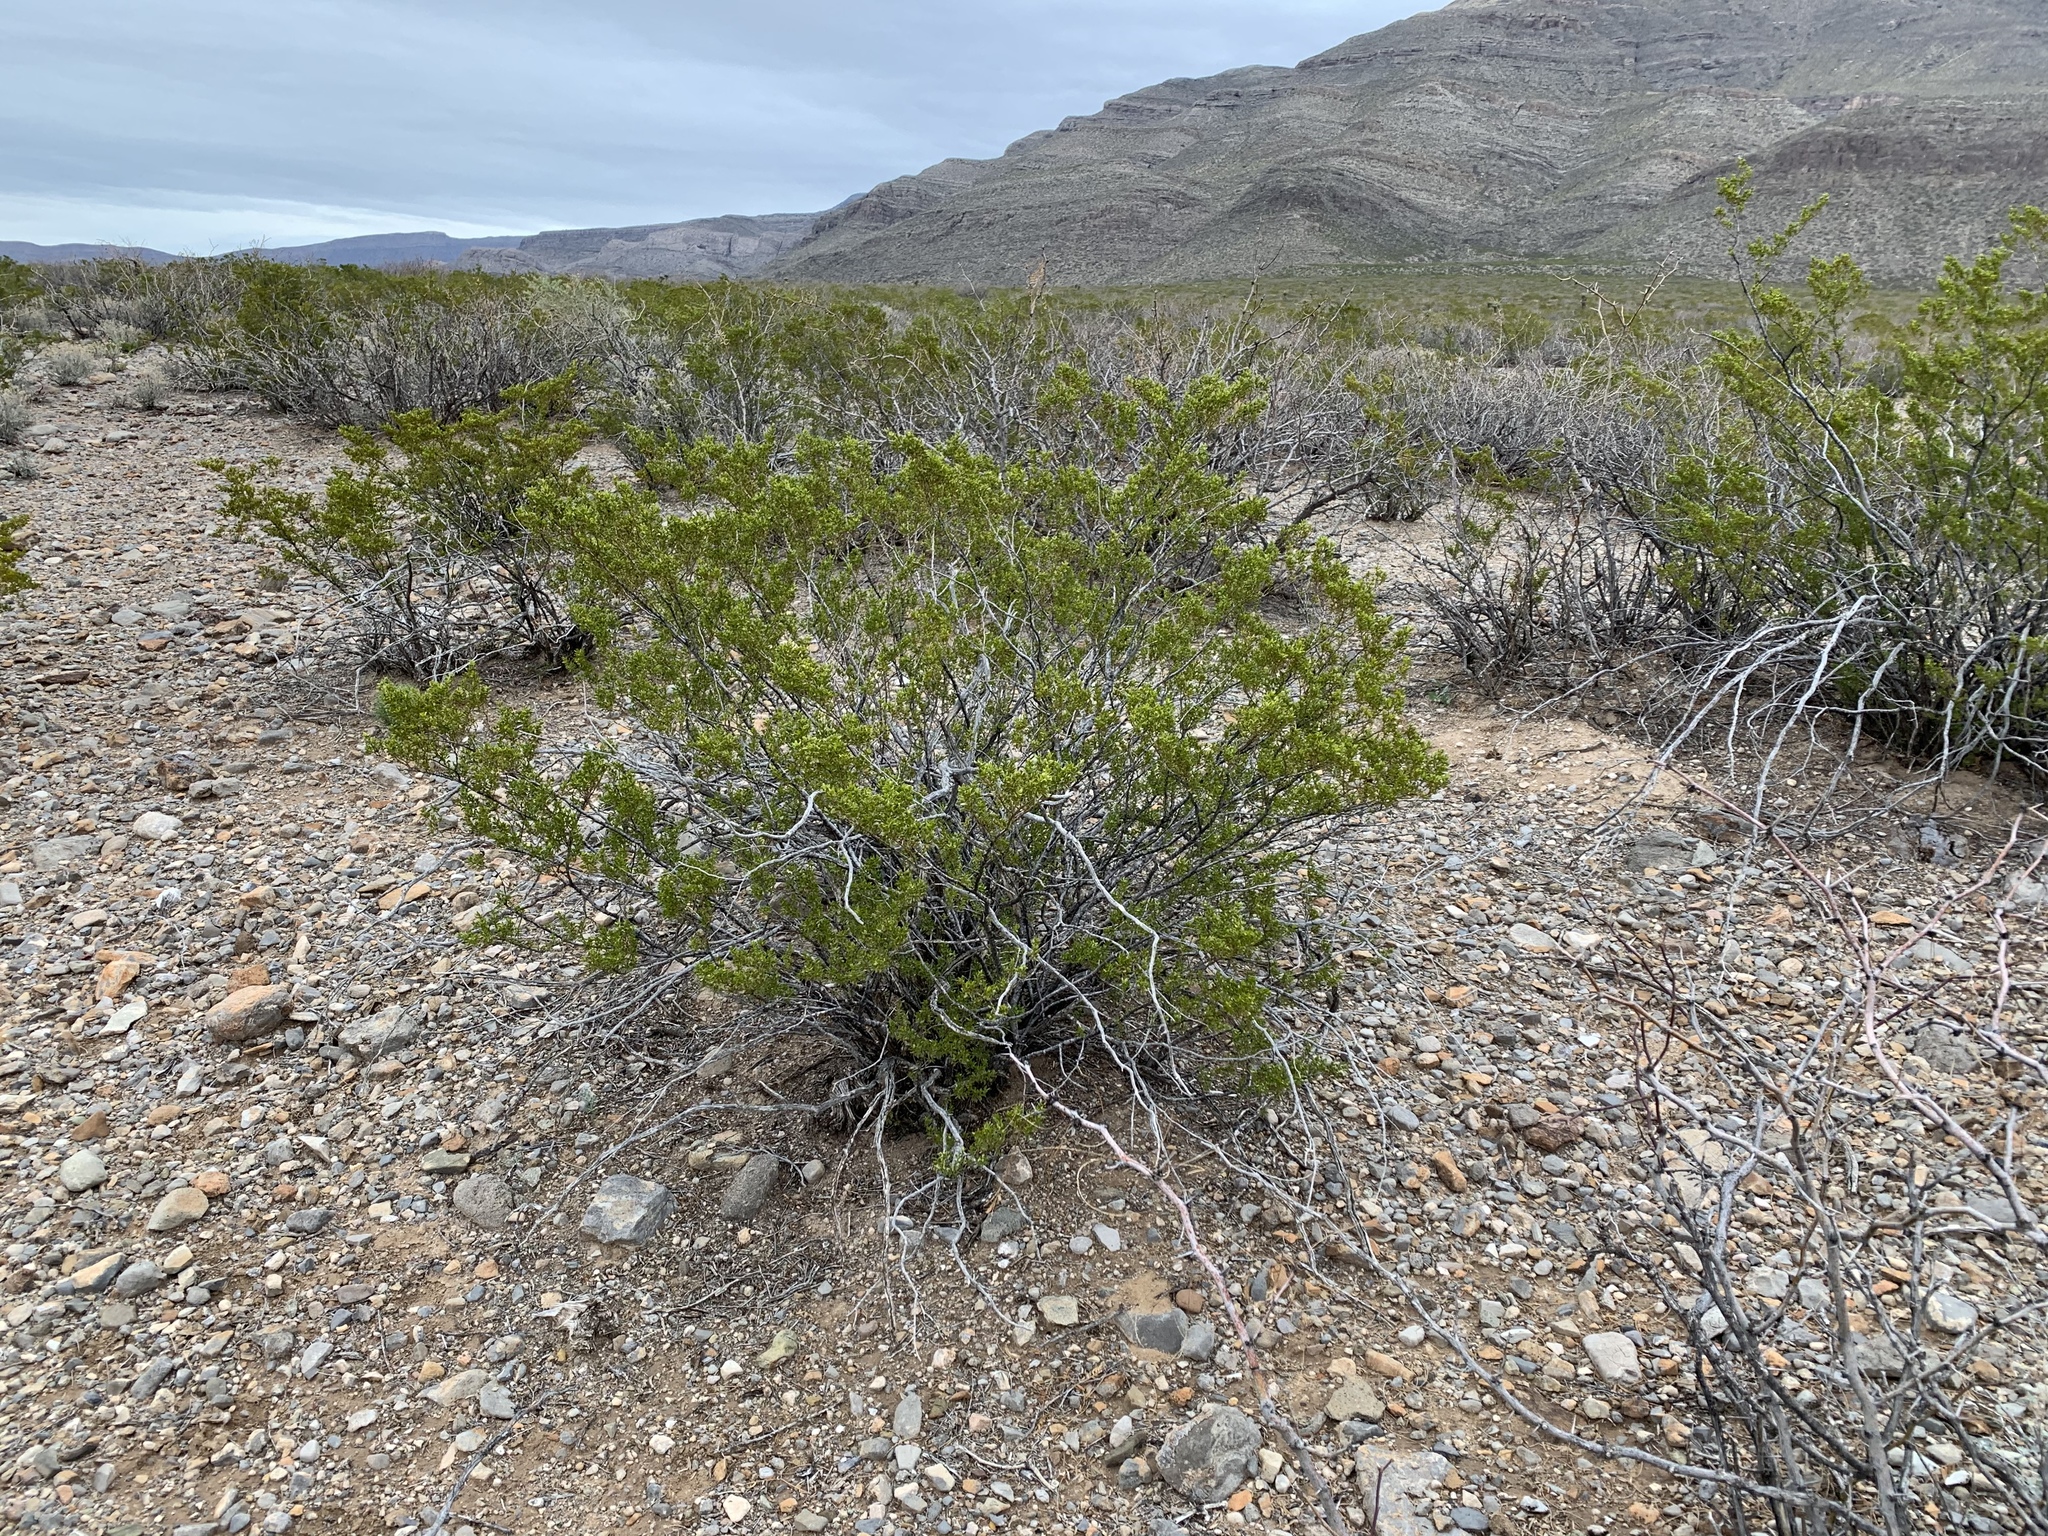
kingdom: Plantae
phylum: Tracheophyta
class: Magnoliopsida
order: Zygophyllales
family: Zygophyllaceae
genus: Larrea
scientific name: Larrea tridentata
